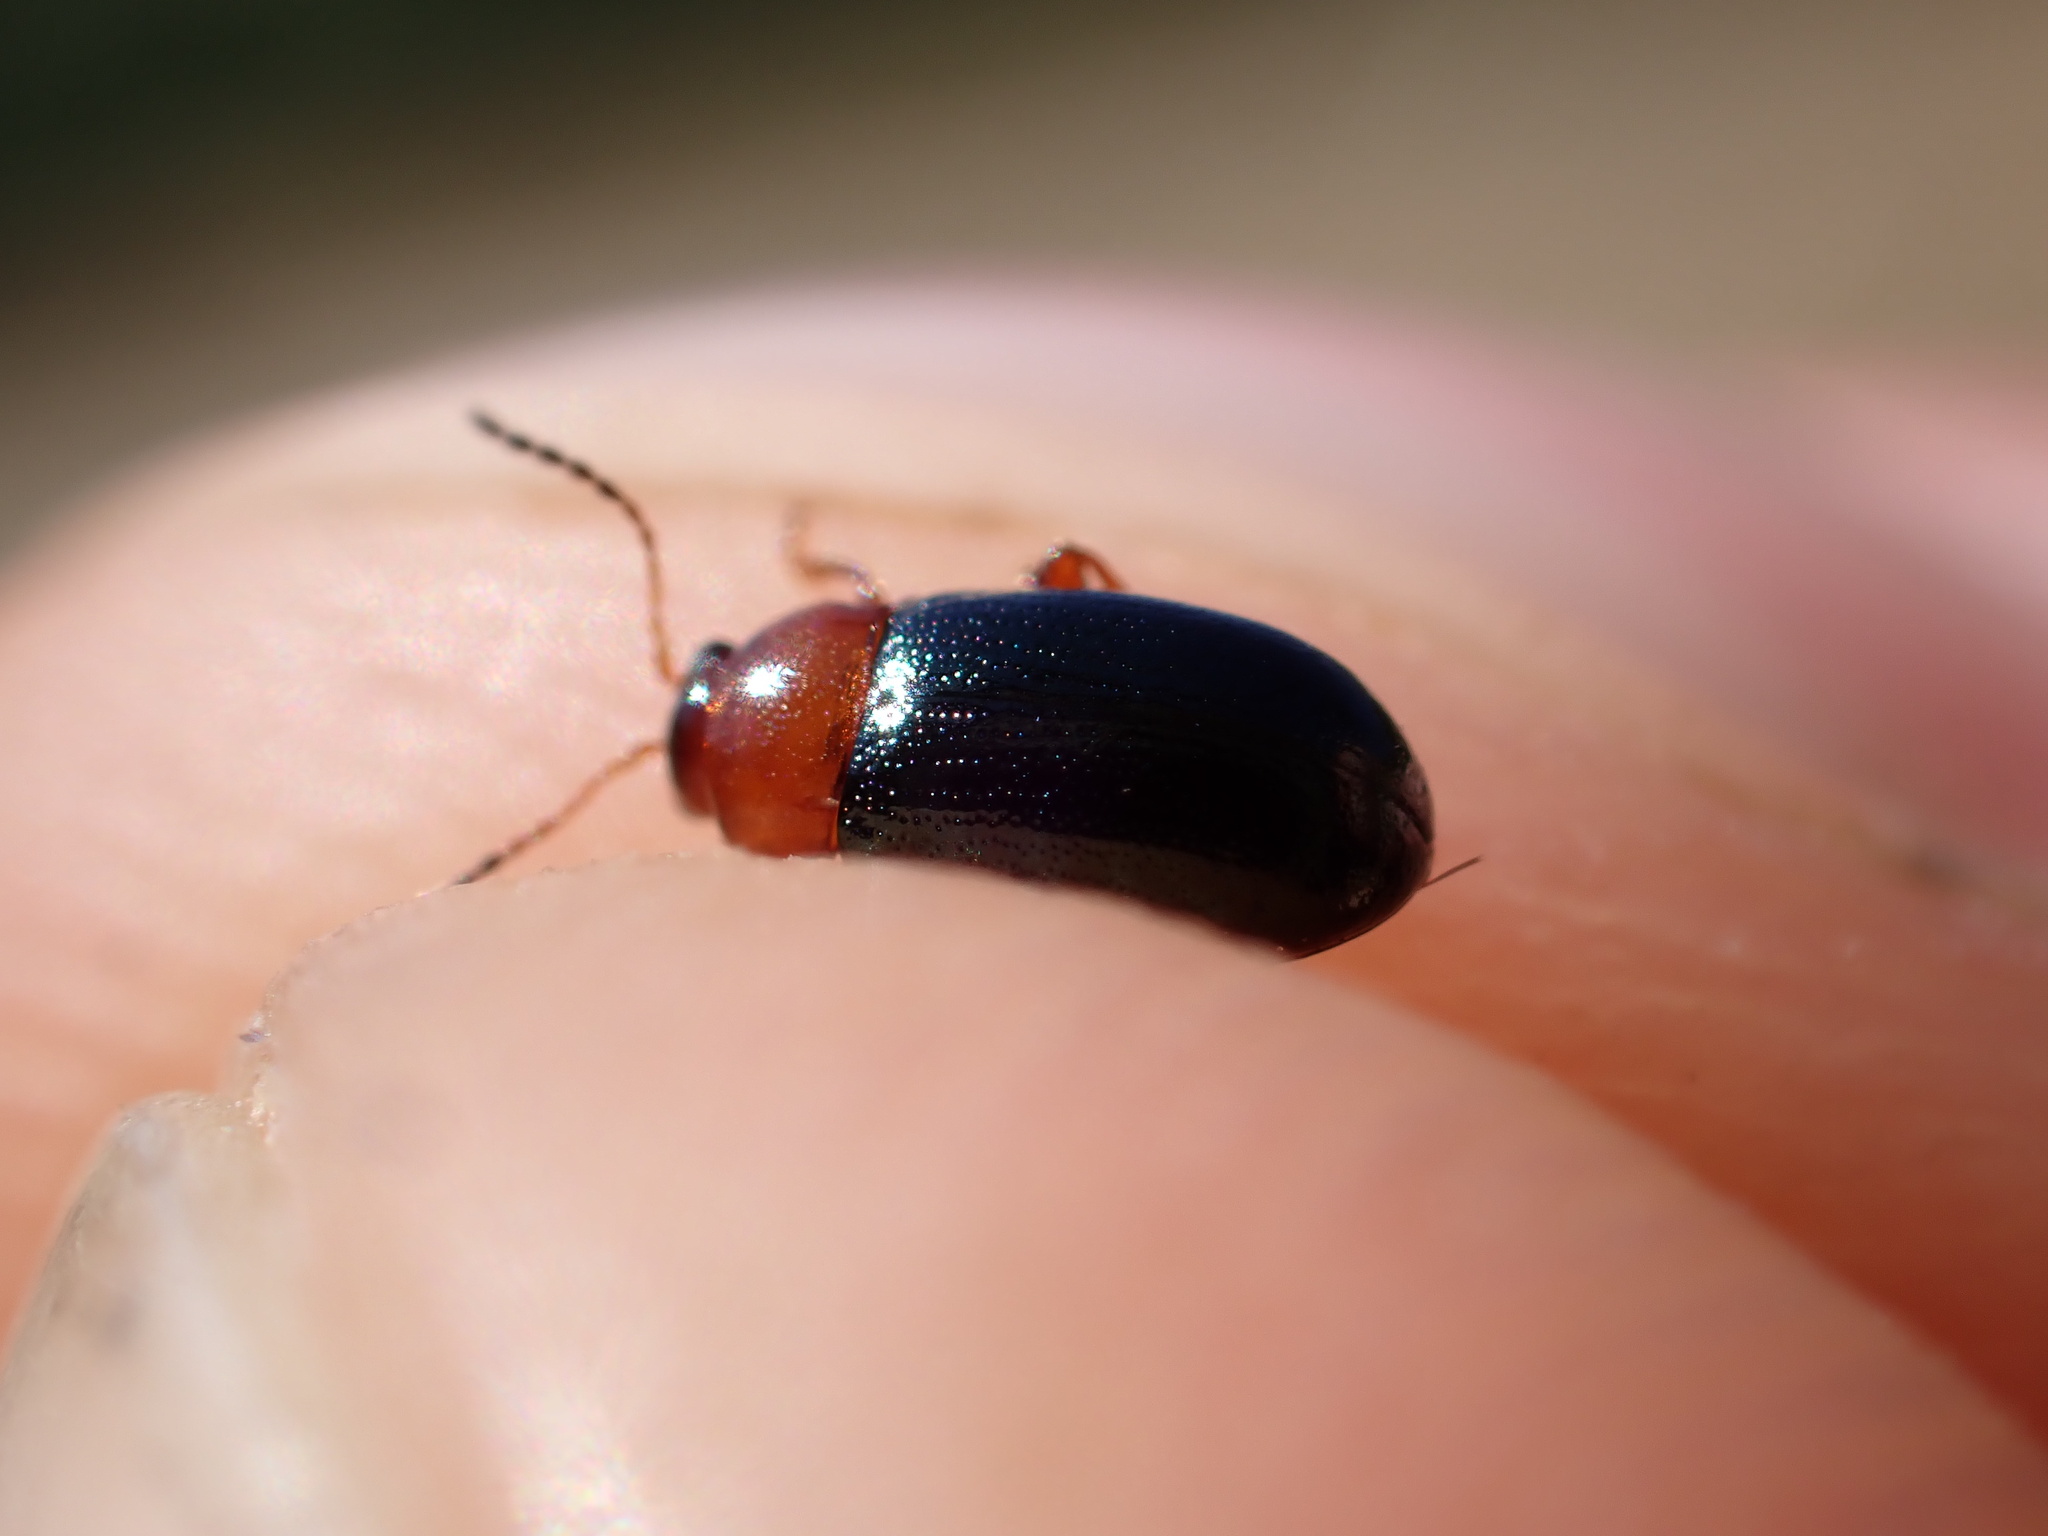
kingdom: Animalia
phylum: Arthropoda
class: Insecta
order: Coleoptera
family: Chrysomelidae
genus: Podagrica
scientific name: Podagrica malvae
